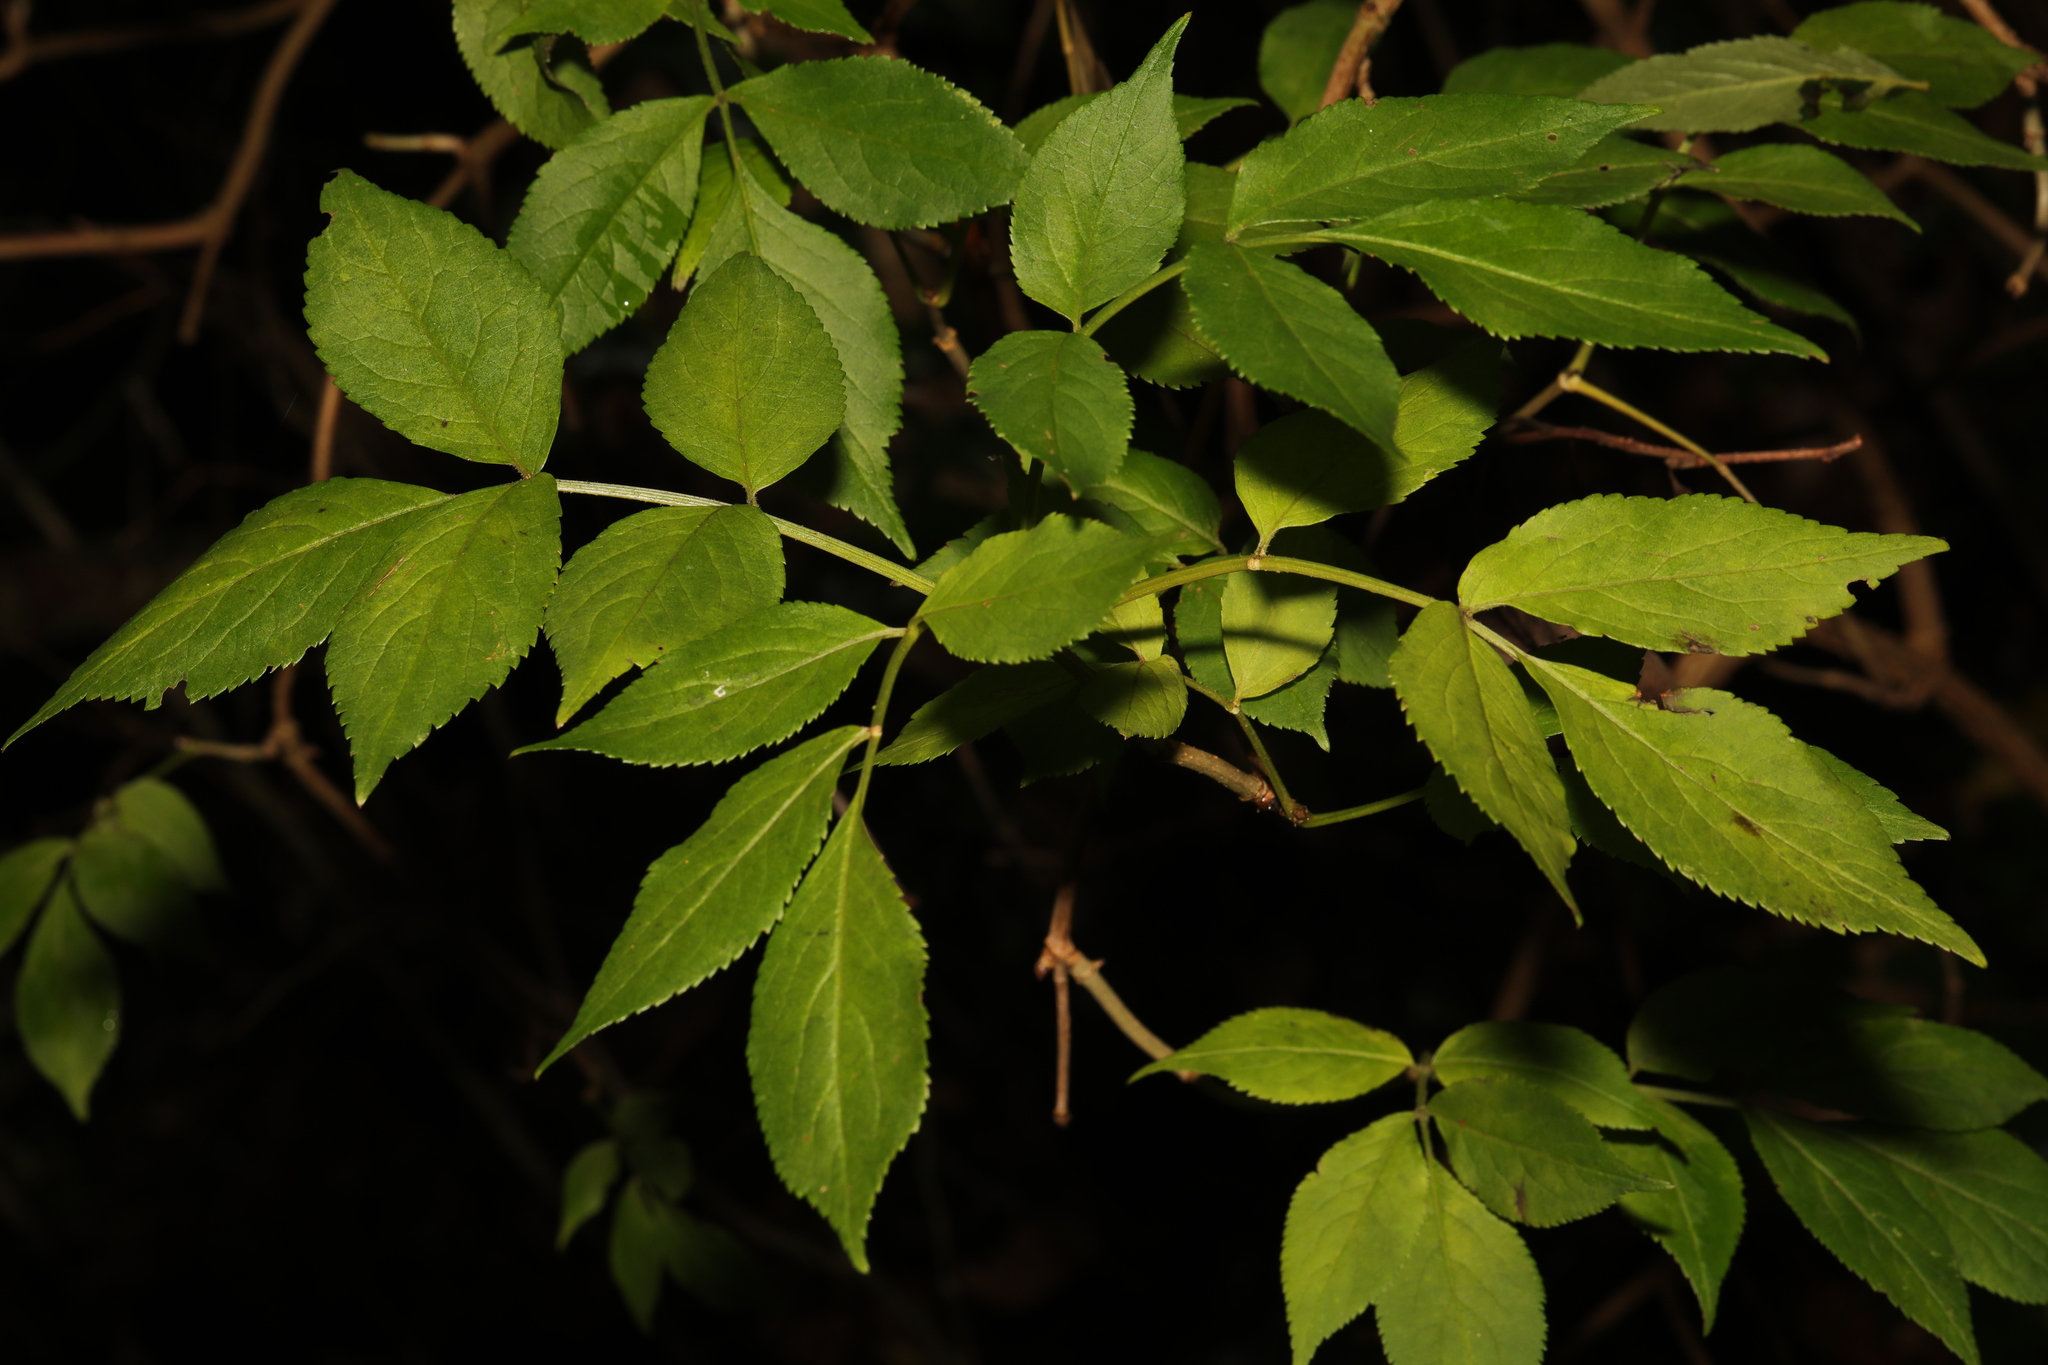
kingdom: Plantae
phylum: Tracheophyta
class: Magnoliopsida
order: Dipsacales
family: Viburnaceae
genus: Sambucus
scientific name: Sambucus nigra
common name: Elder
